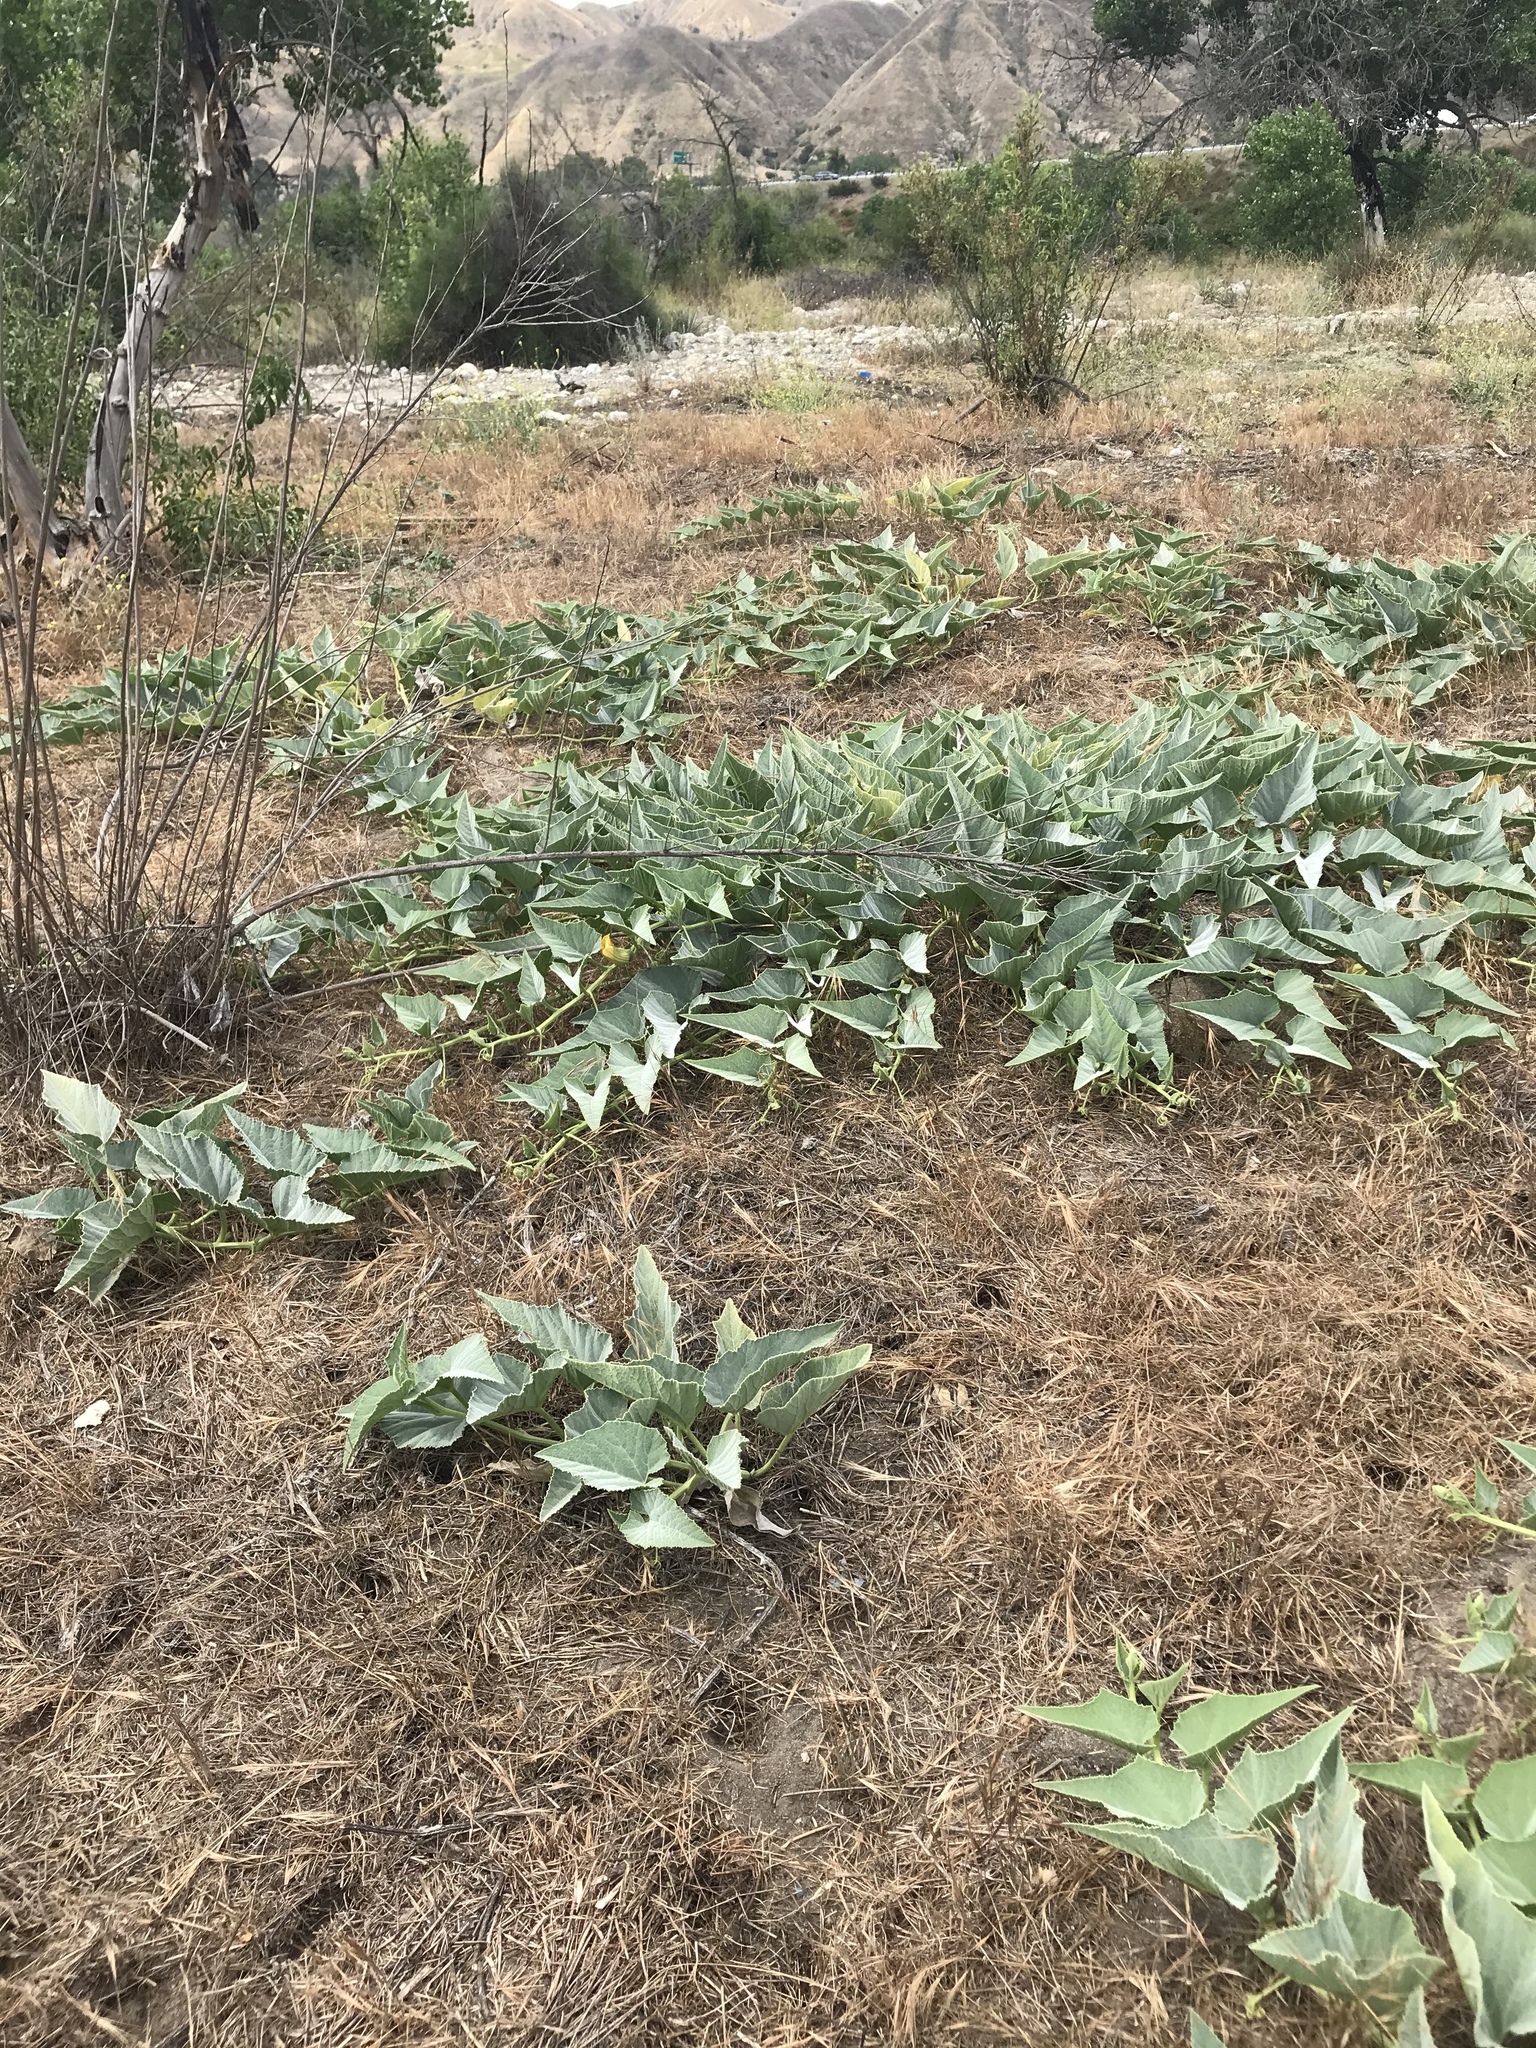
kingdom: Plantae
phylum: Tracheophyta
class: Magnoliopsida
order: Cucurbitales
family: Cucurbitaceae
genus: Cucurbita
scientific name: Cucurbita foetidissima
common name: Buffalo gourd
